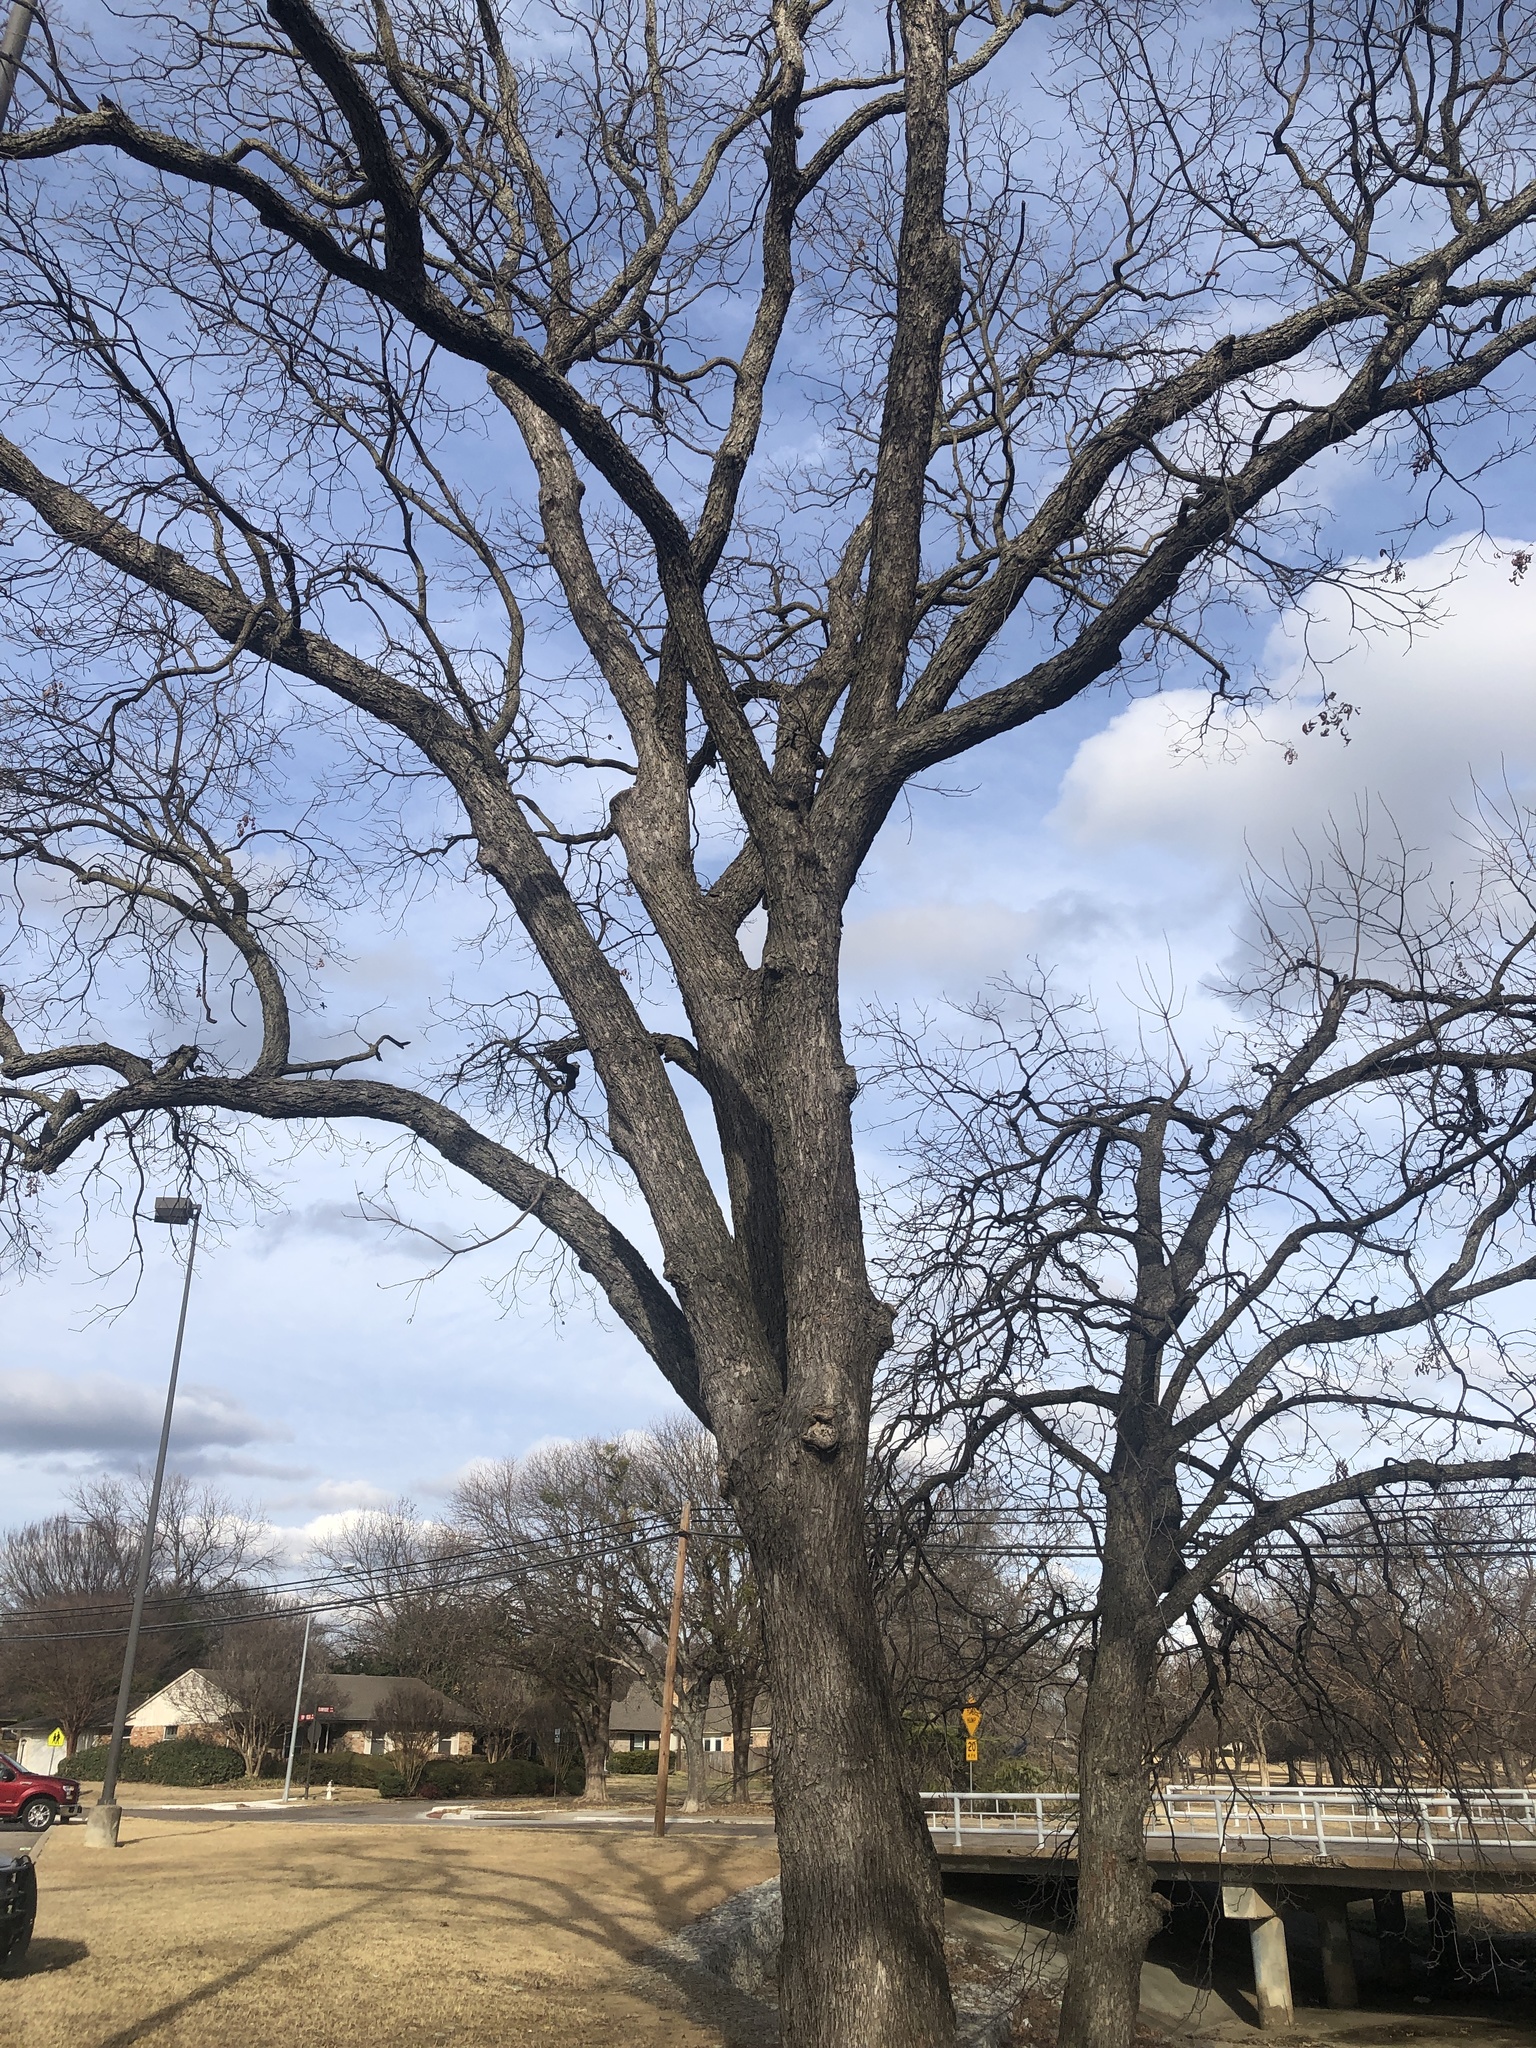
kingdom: Plantae
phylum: Tracheophyta
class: Magnoliopsida
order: Fagales
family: Juglandaceae
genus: Carya
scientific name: Carya illinoinensis
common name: Pecan
